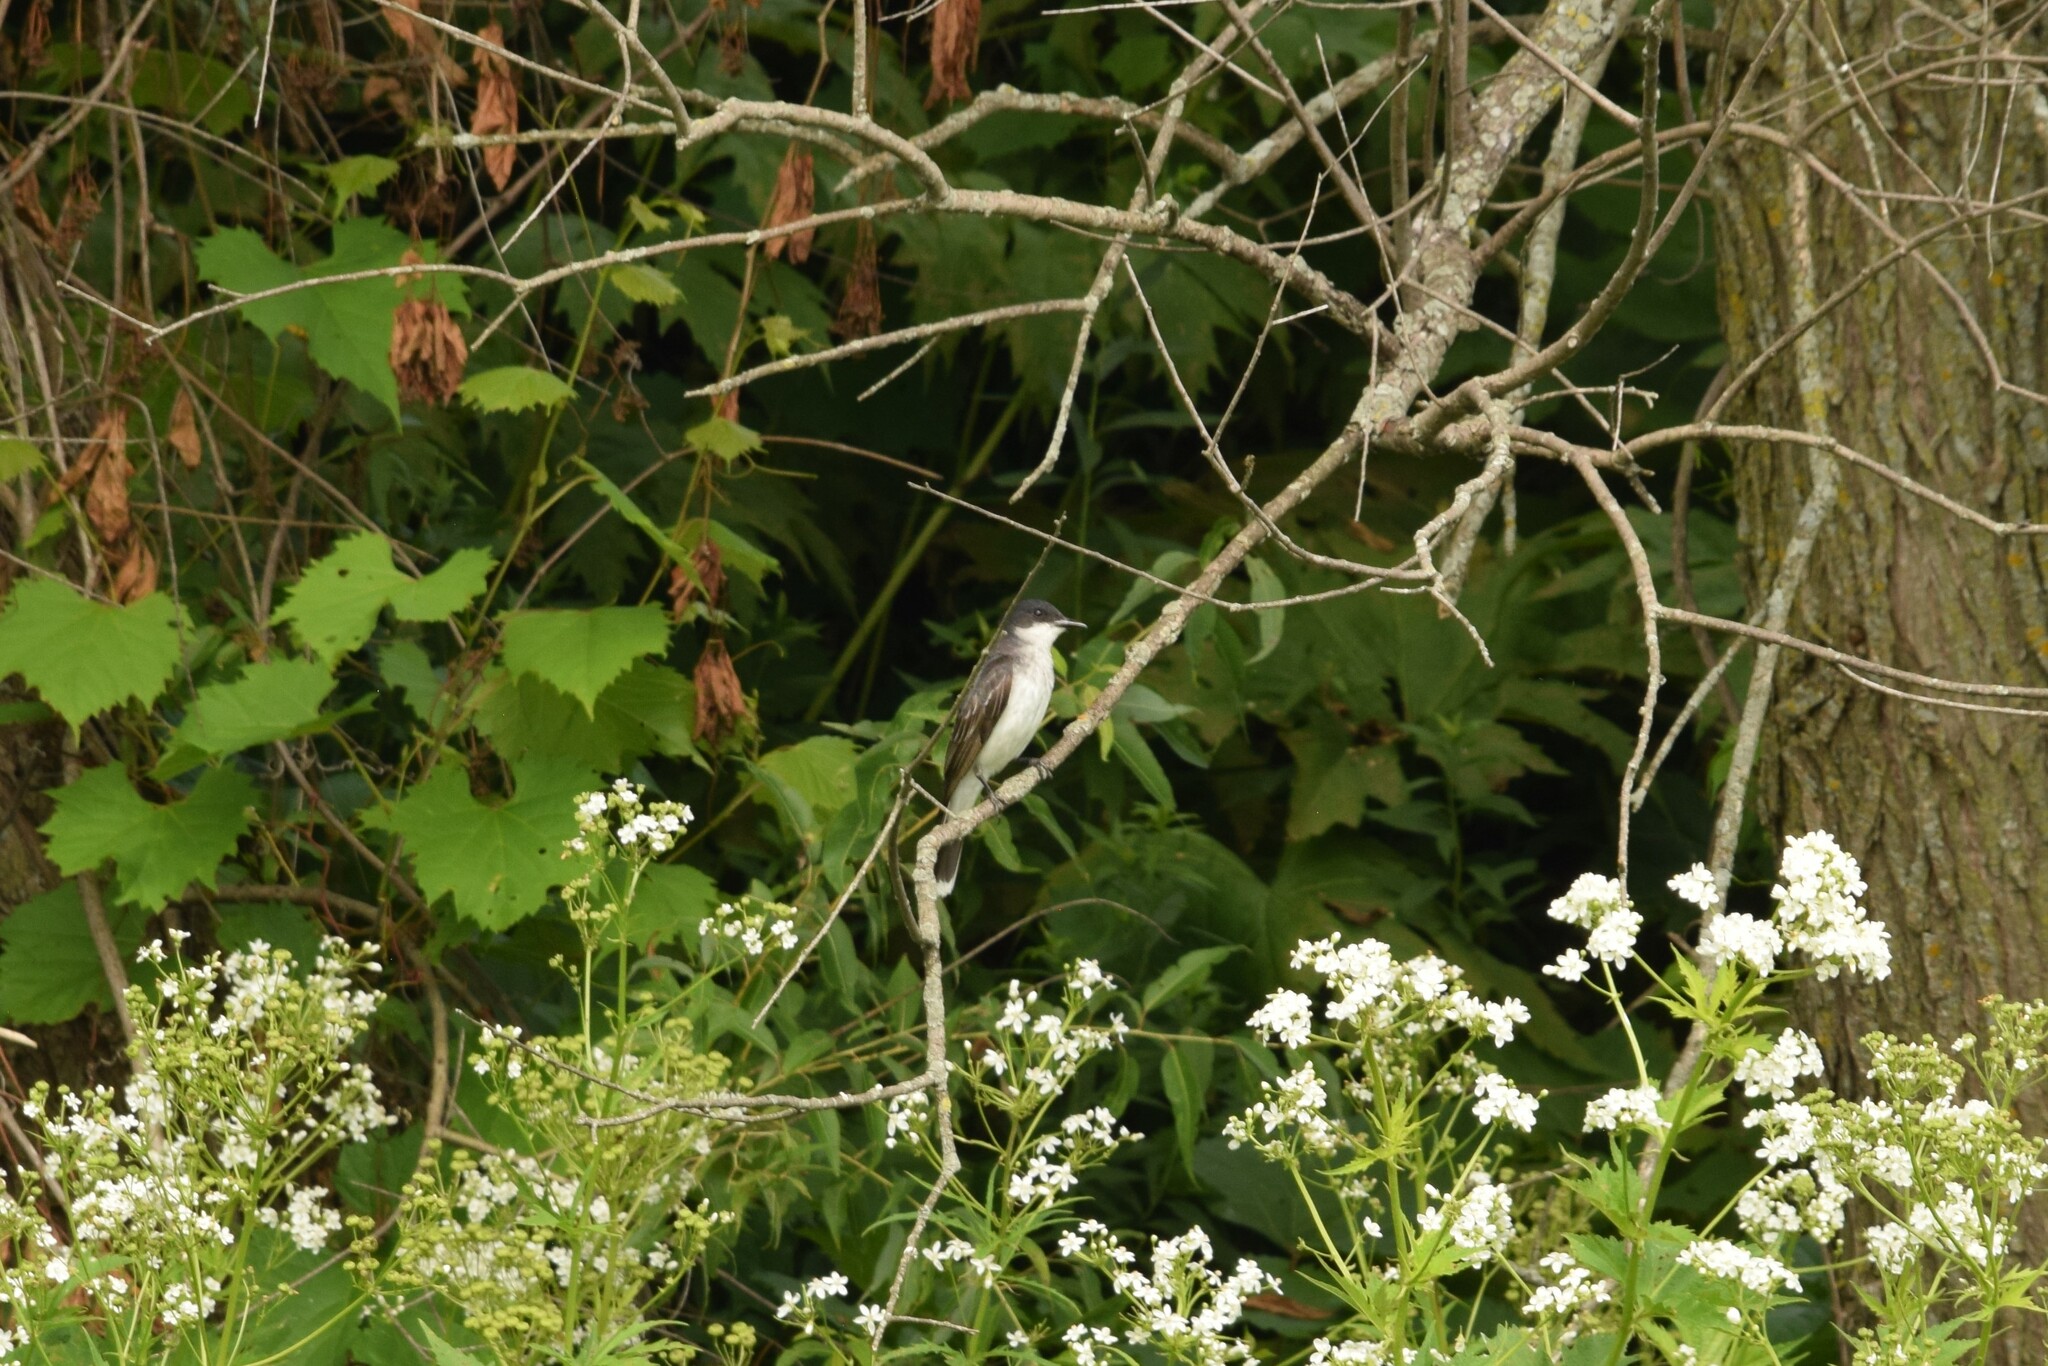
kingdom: Animalia
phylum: Chordata
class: Aves
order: Passeriformes
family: Tyrannidae
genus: Tyrannus
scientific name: Tyrannus tyrannus
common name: Eastern kingbird
